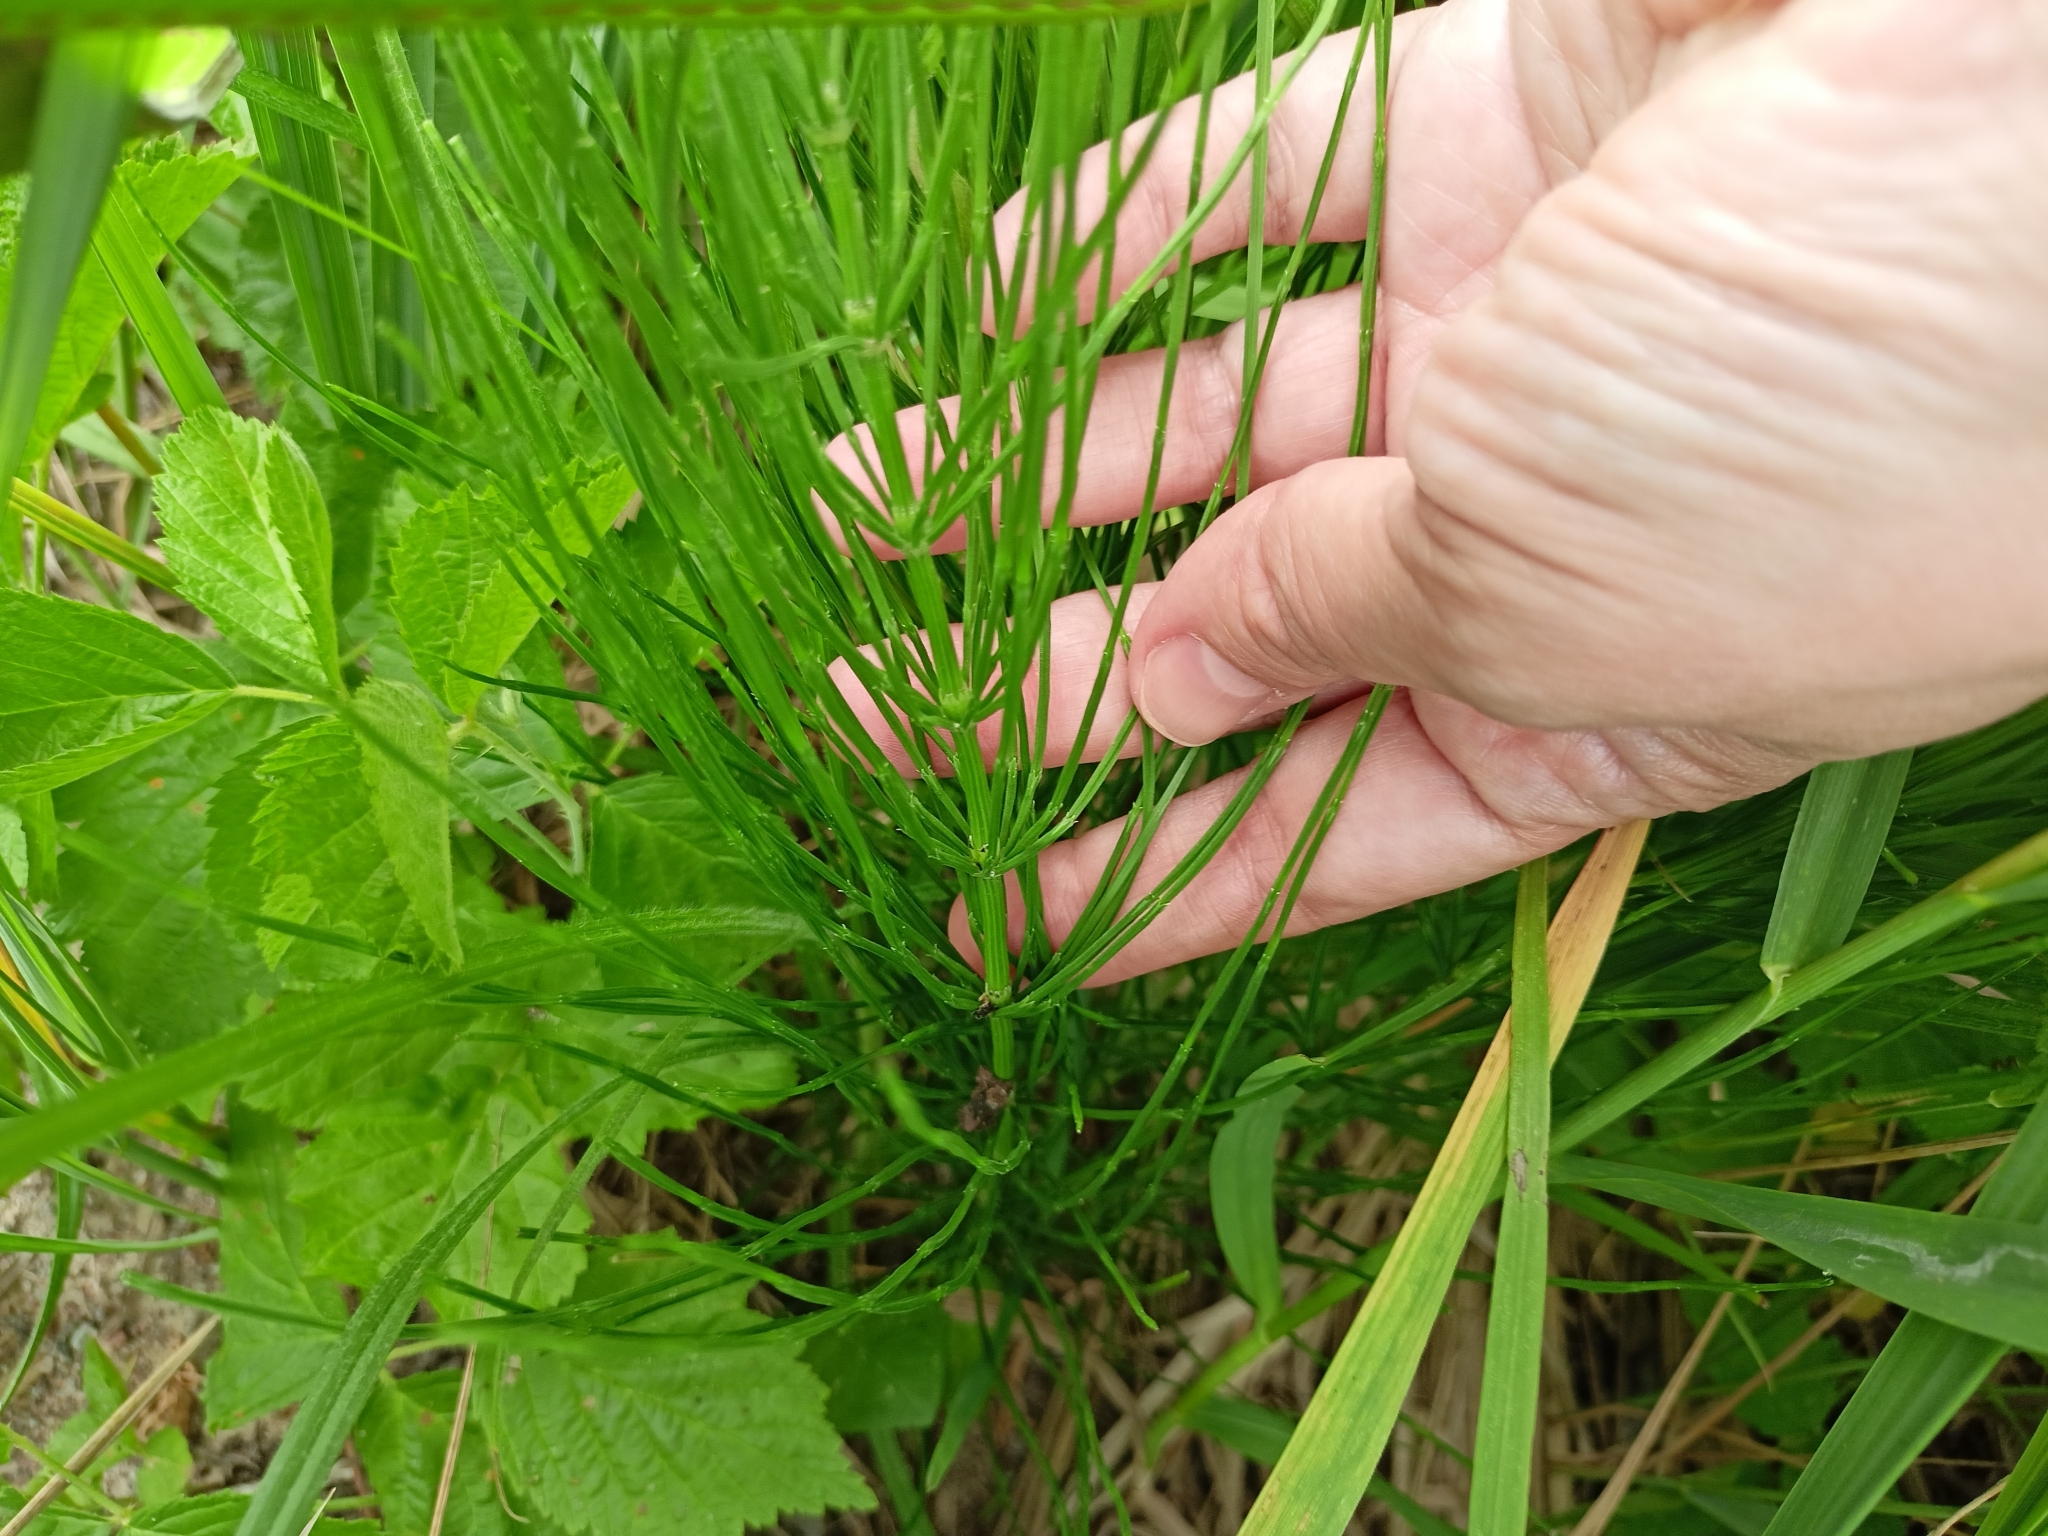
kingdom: Plantae
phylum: Tracheophyta
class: Polypodiopsida
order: Equisetales
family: Equisetaceae
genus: Equisetum
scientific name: Equisetum arvense
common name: Field horsetail
